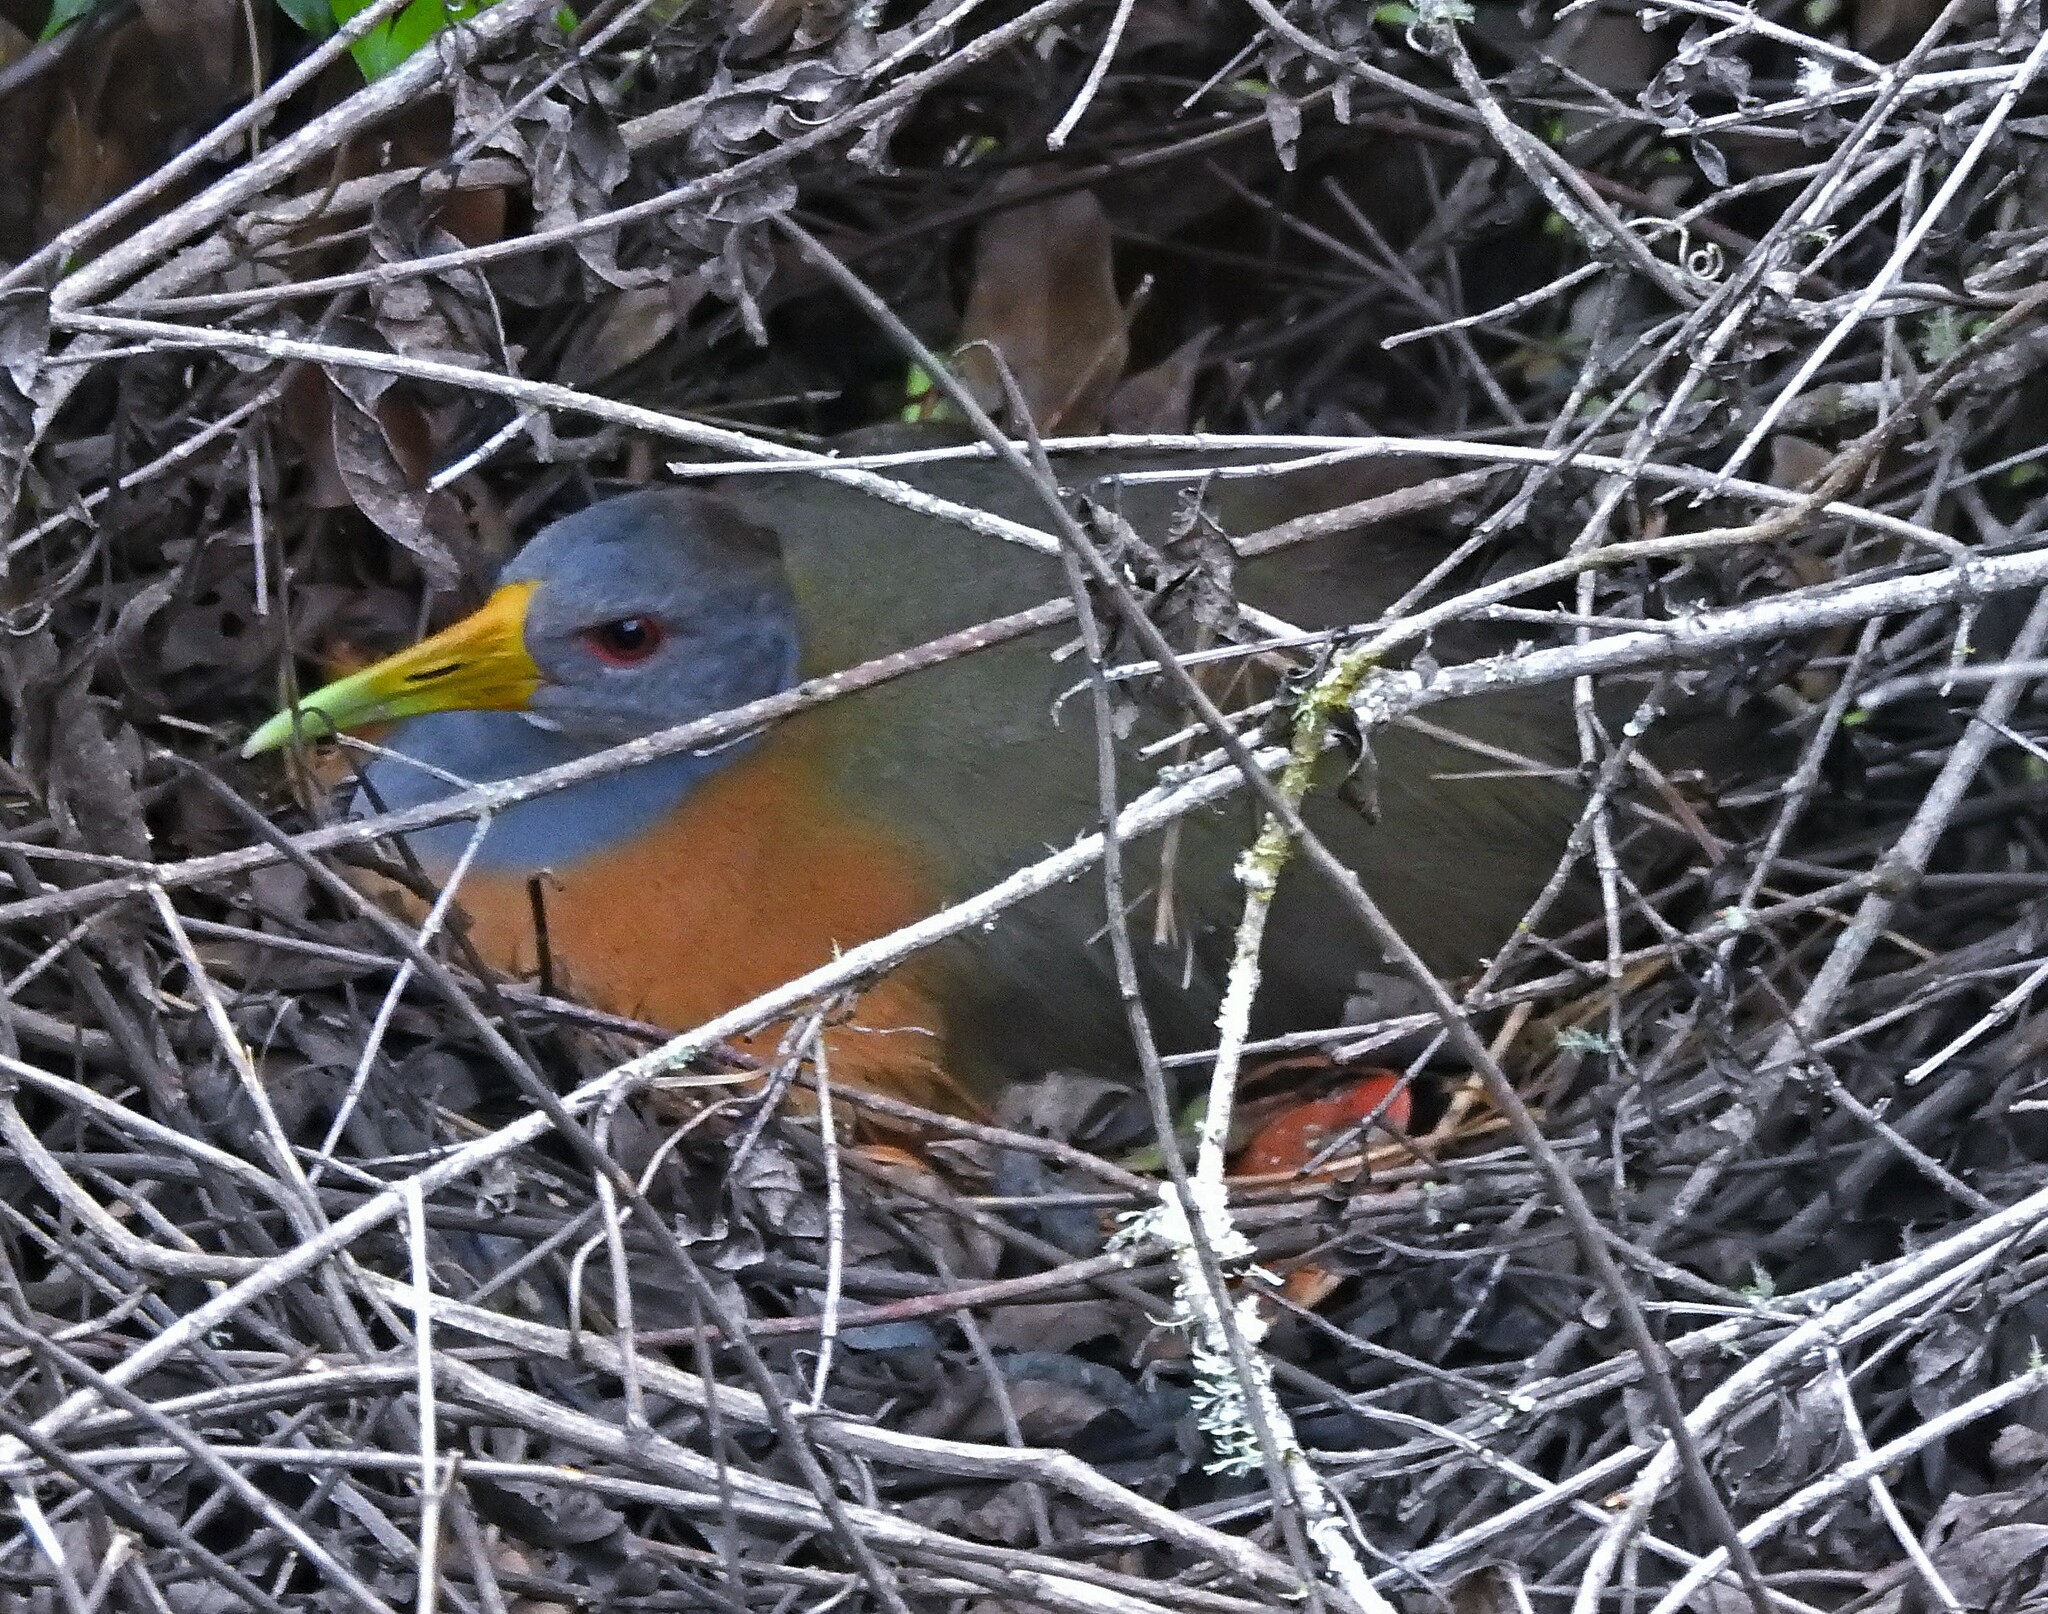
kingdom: Animalia
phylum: Chordata
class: Aves
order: Gruiformes
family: Rallidae
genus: Aramides
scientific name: Aramides cajanea
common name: Gray-necked wood-rail
